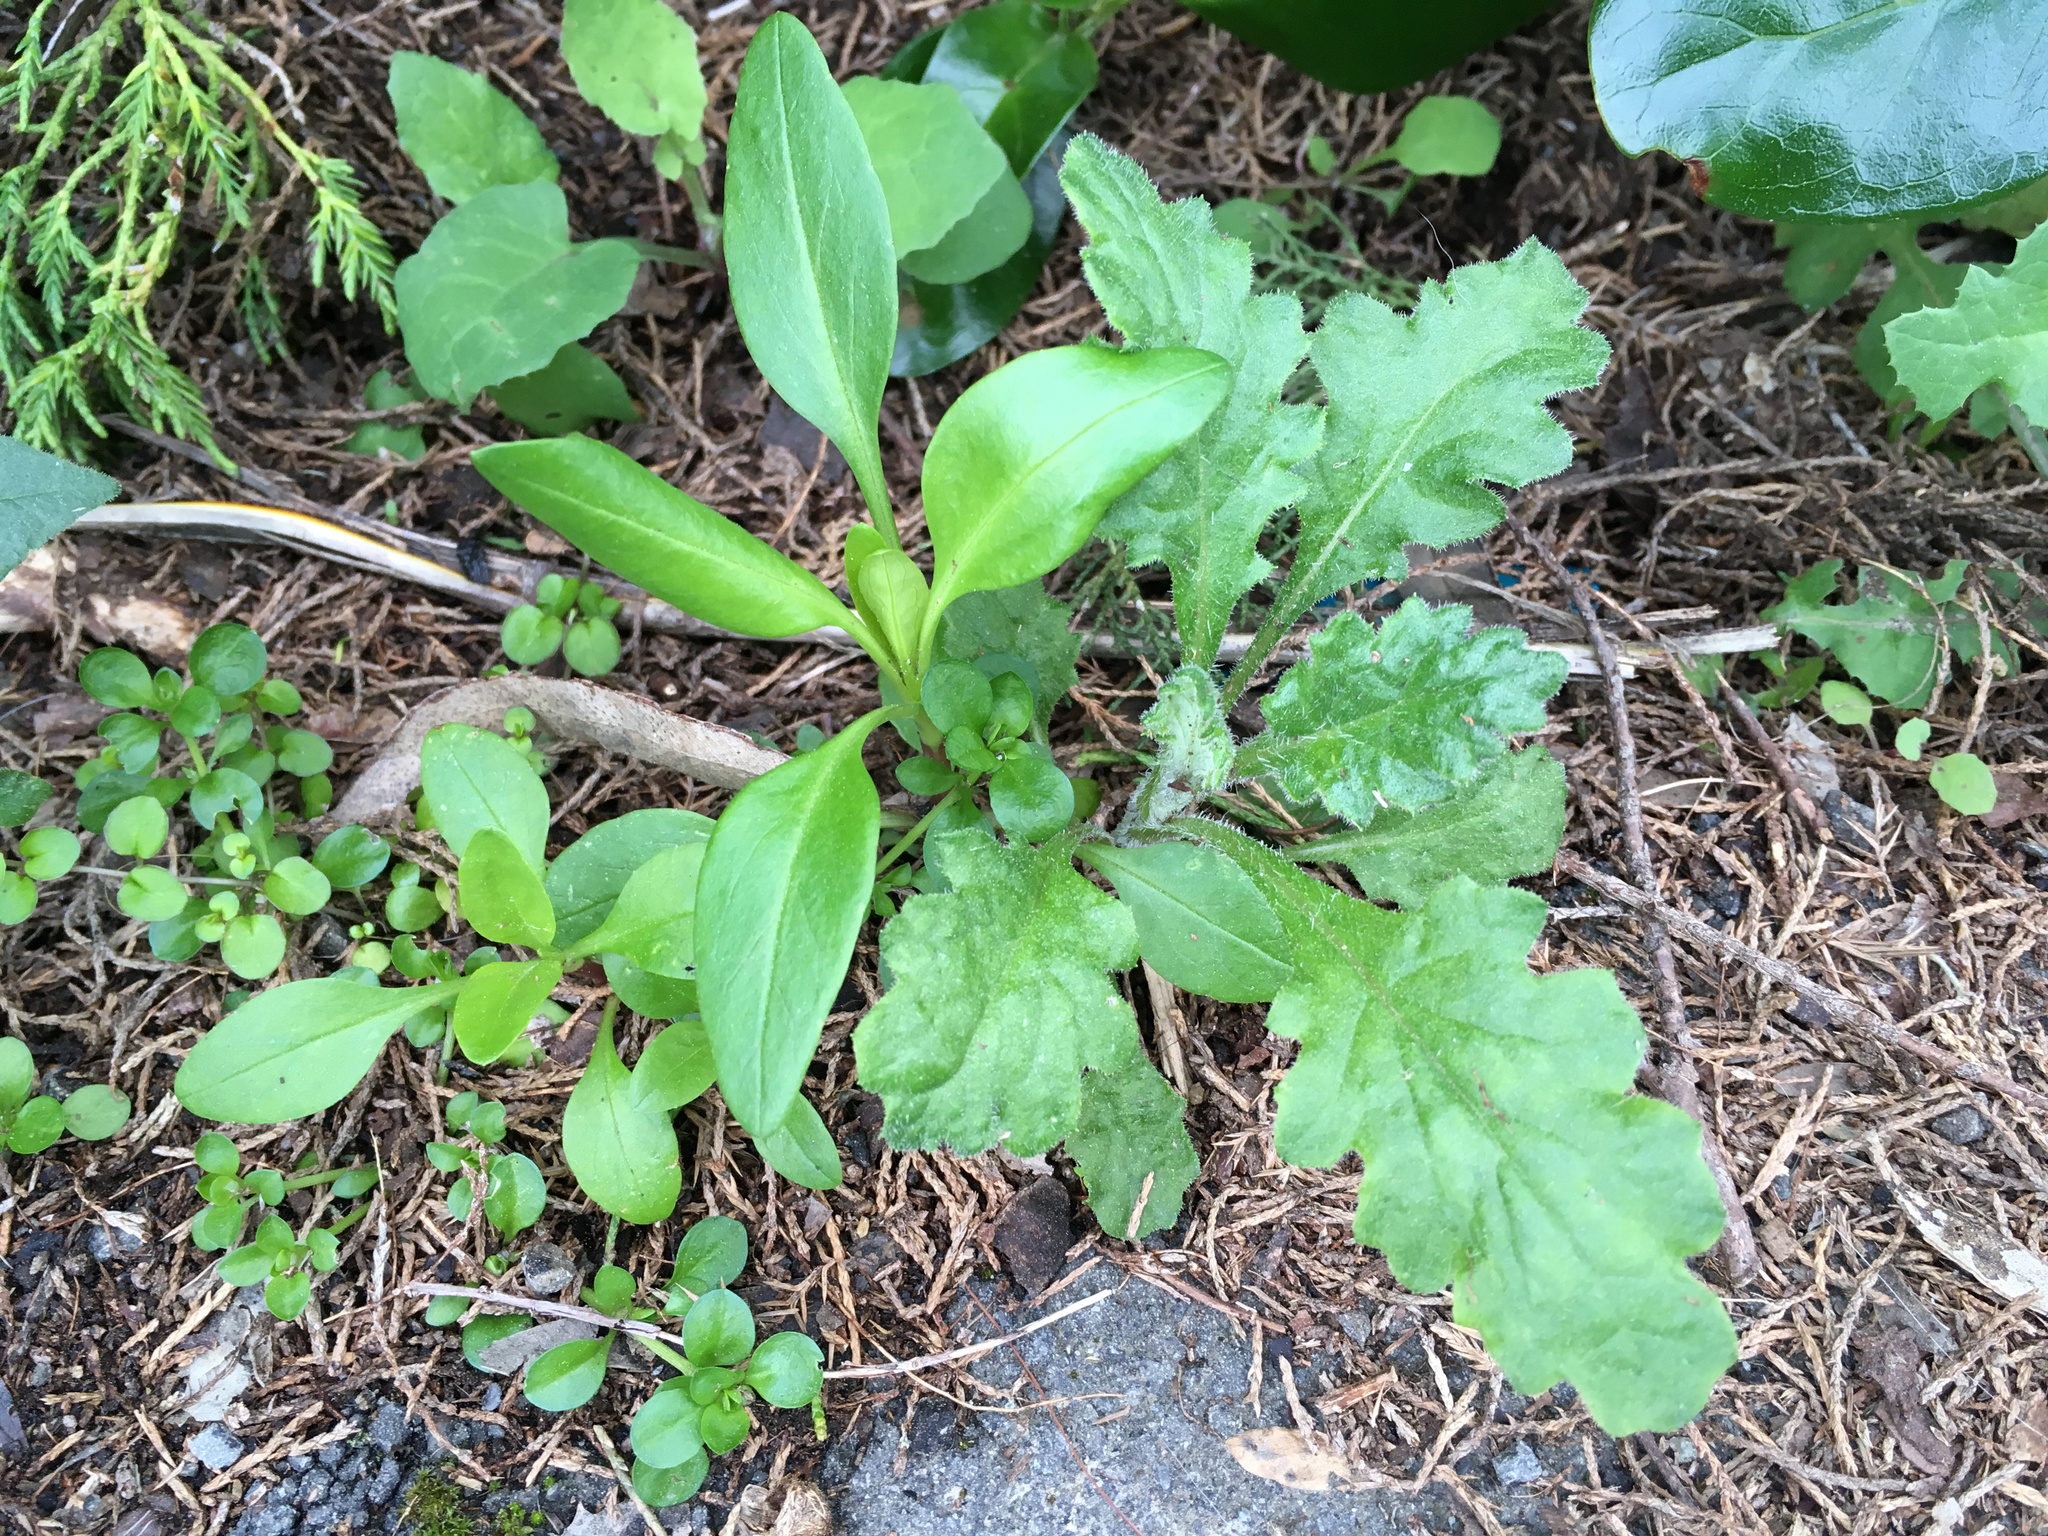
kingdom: Plantae
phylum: Tracheophyta
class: Magnoliopsida
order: Asterales
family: Asteraceae
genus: Senecio
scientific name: Senecio glomeratus
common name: Cutleaf burnweed
